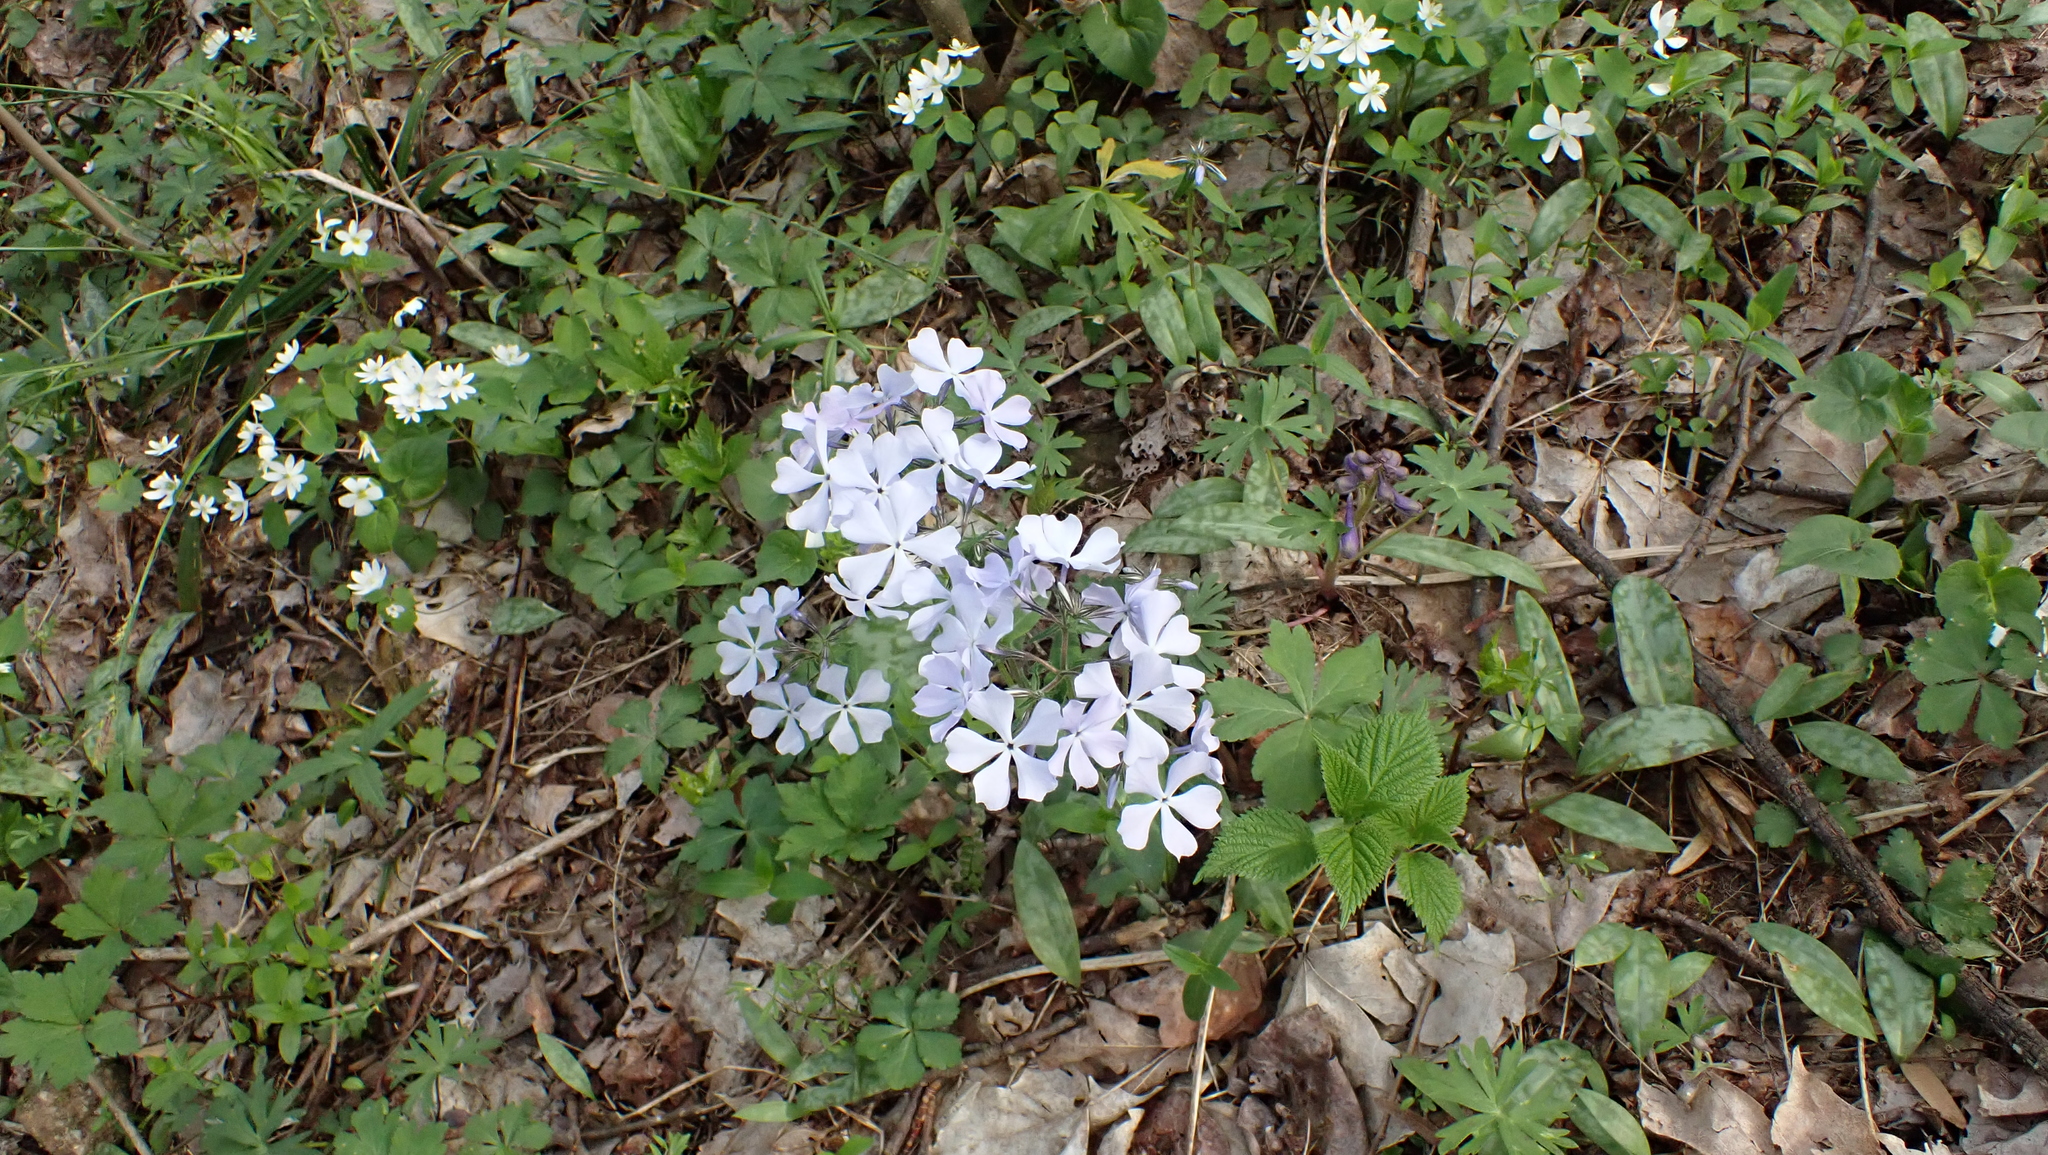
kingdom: Plantae
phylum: Tracheophyta
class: Magnoliopsida
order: Ericales
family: Polemoniaceae
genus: Phlox
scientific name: Phlox divaricata
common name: Blue phlox
